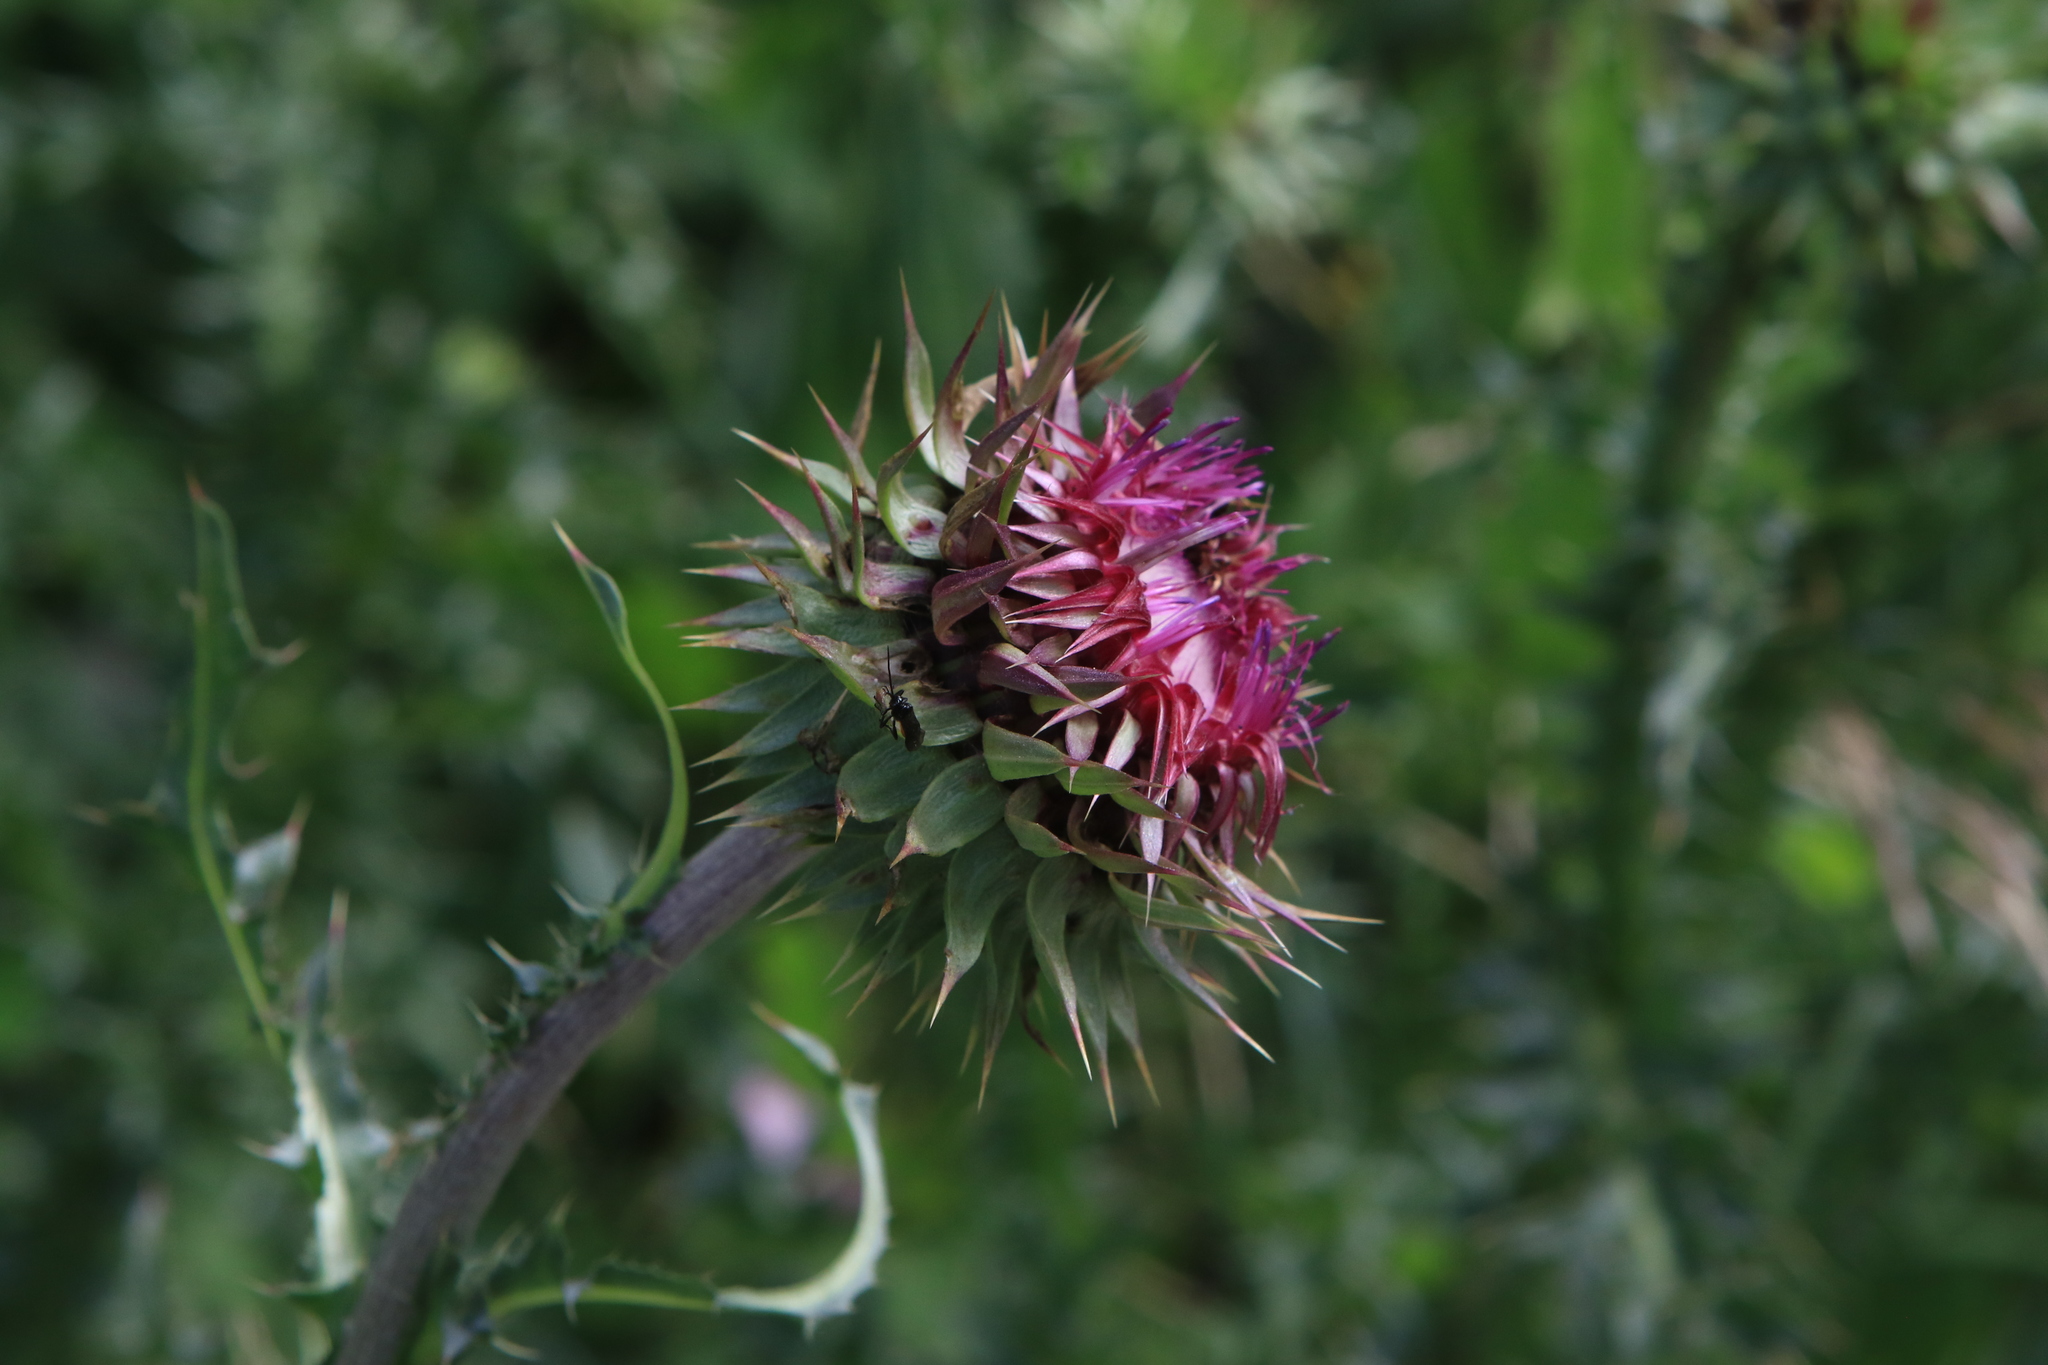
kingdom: Plantae
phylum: Tracheophyta
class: Magnoliopsida
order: Asterales
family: Asteraceae
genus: Carduus
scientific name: Carduus nutans
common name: Musk thistle
